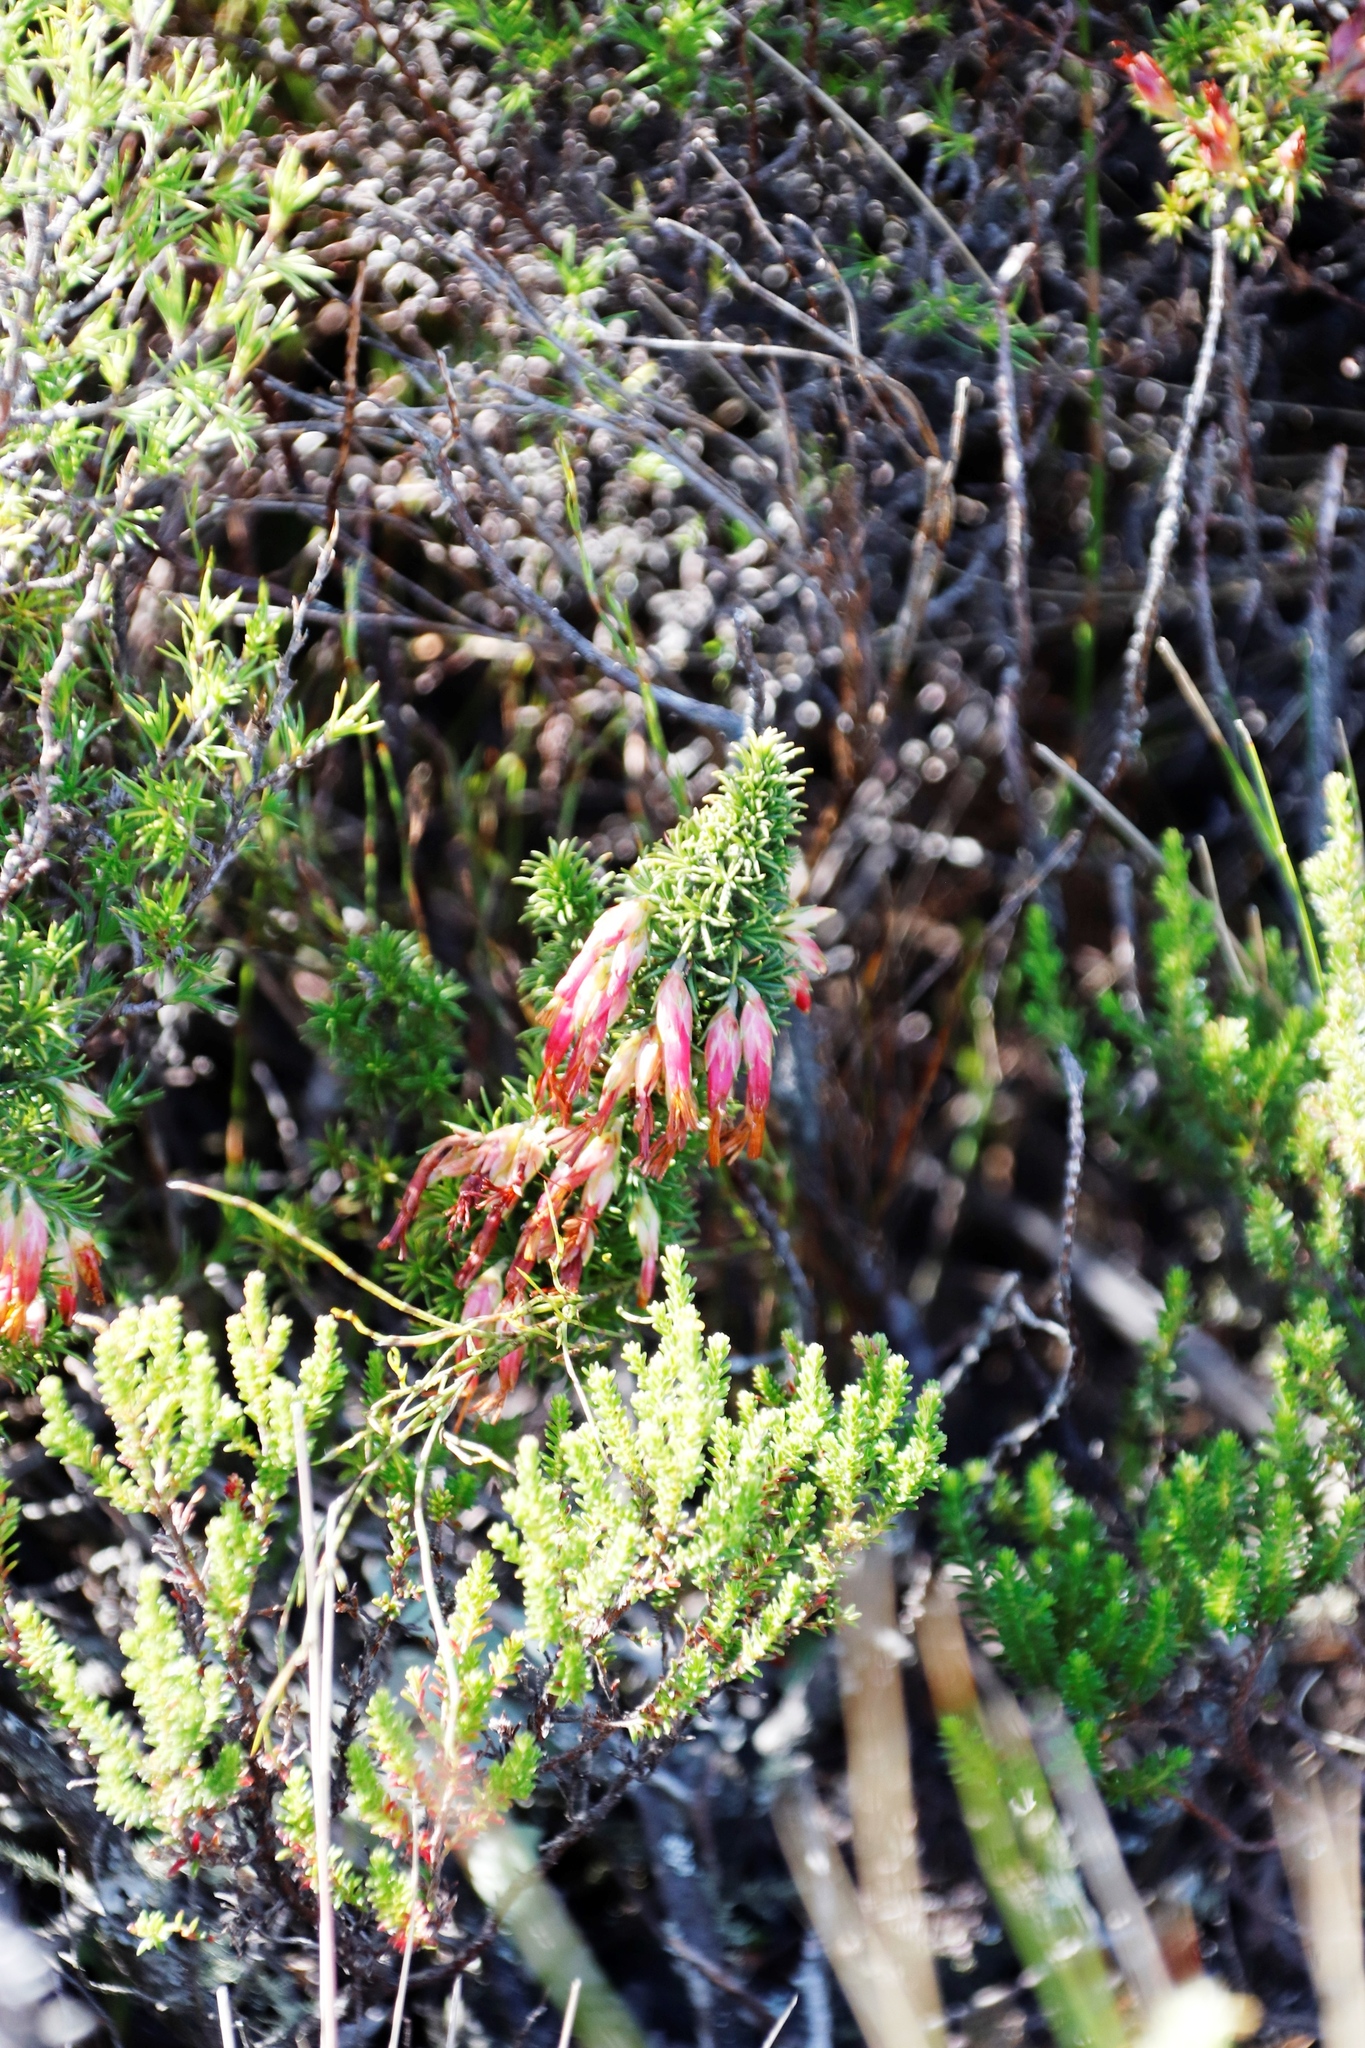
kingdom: Plantae
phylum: Tracheophyta
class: Magnoliopsida
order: Ericales
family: Ericaceae
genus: Erica
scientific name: Erica coccinea
